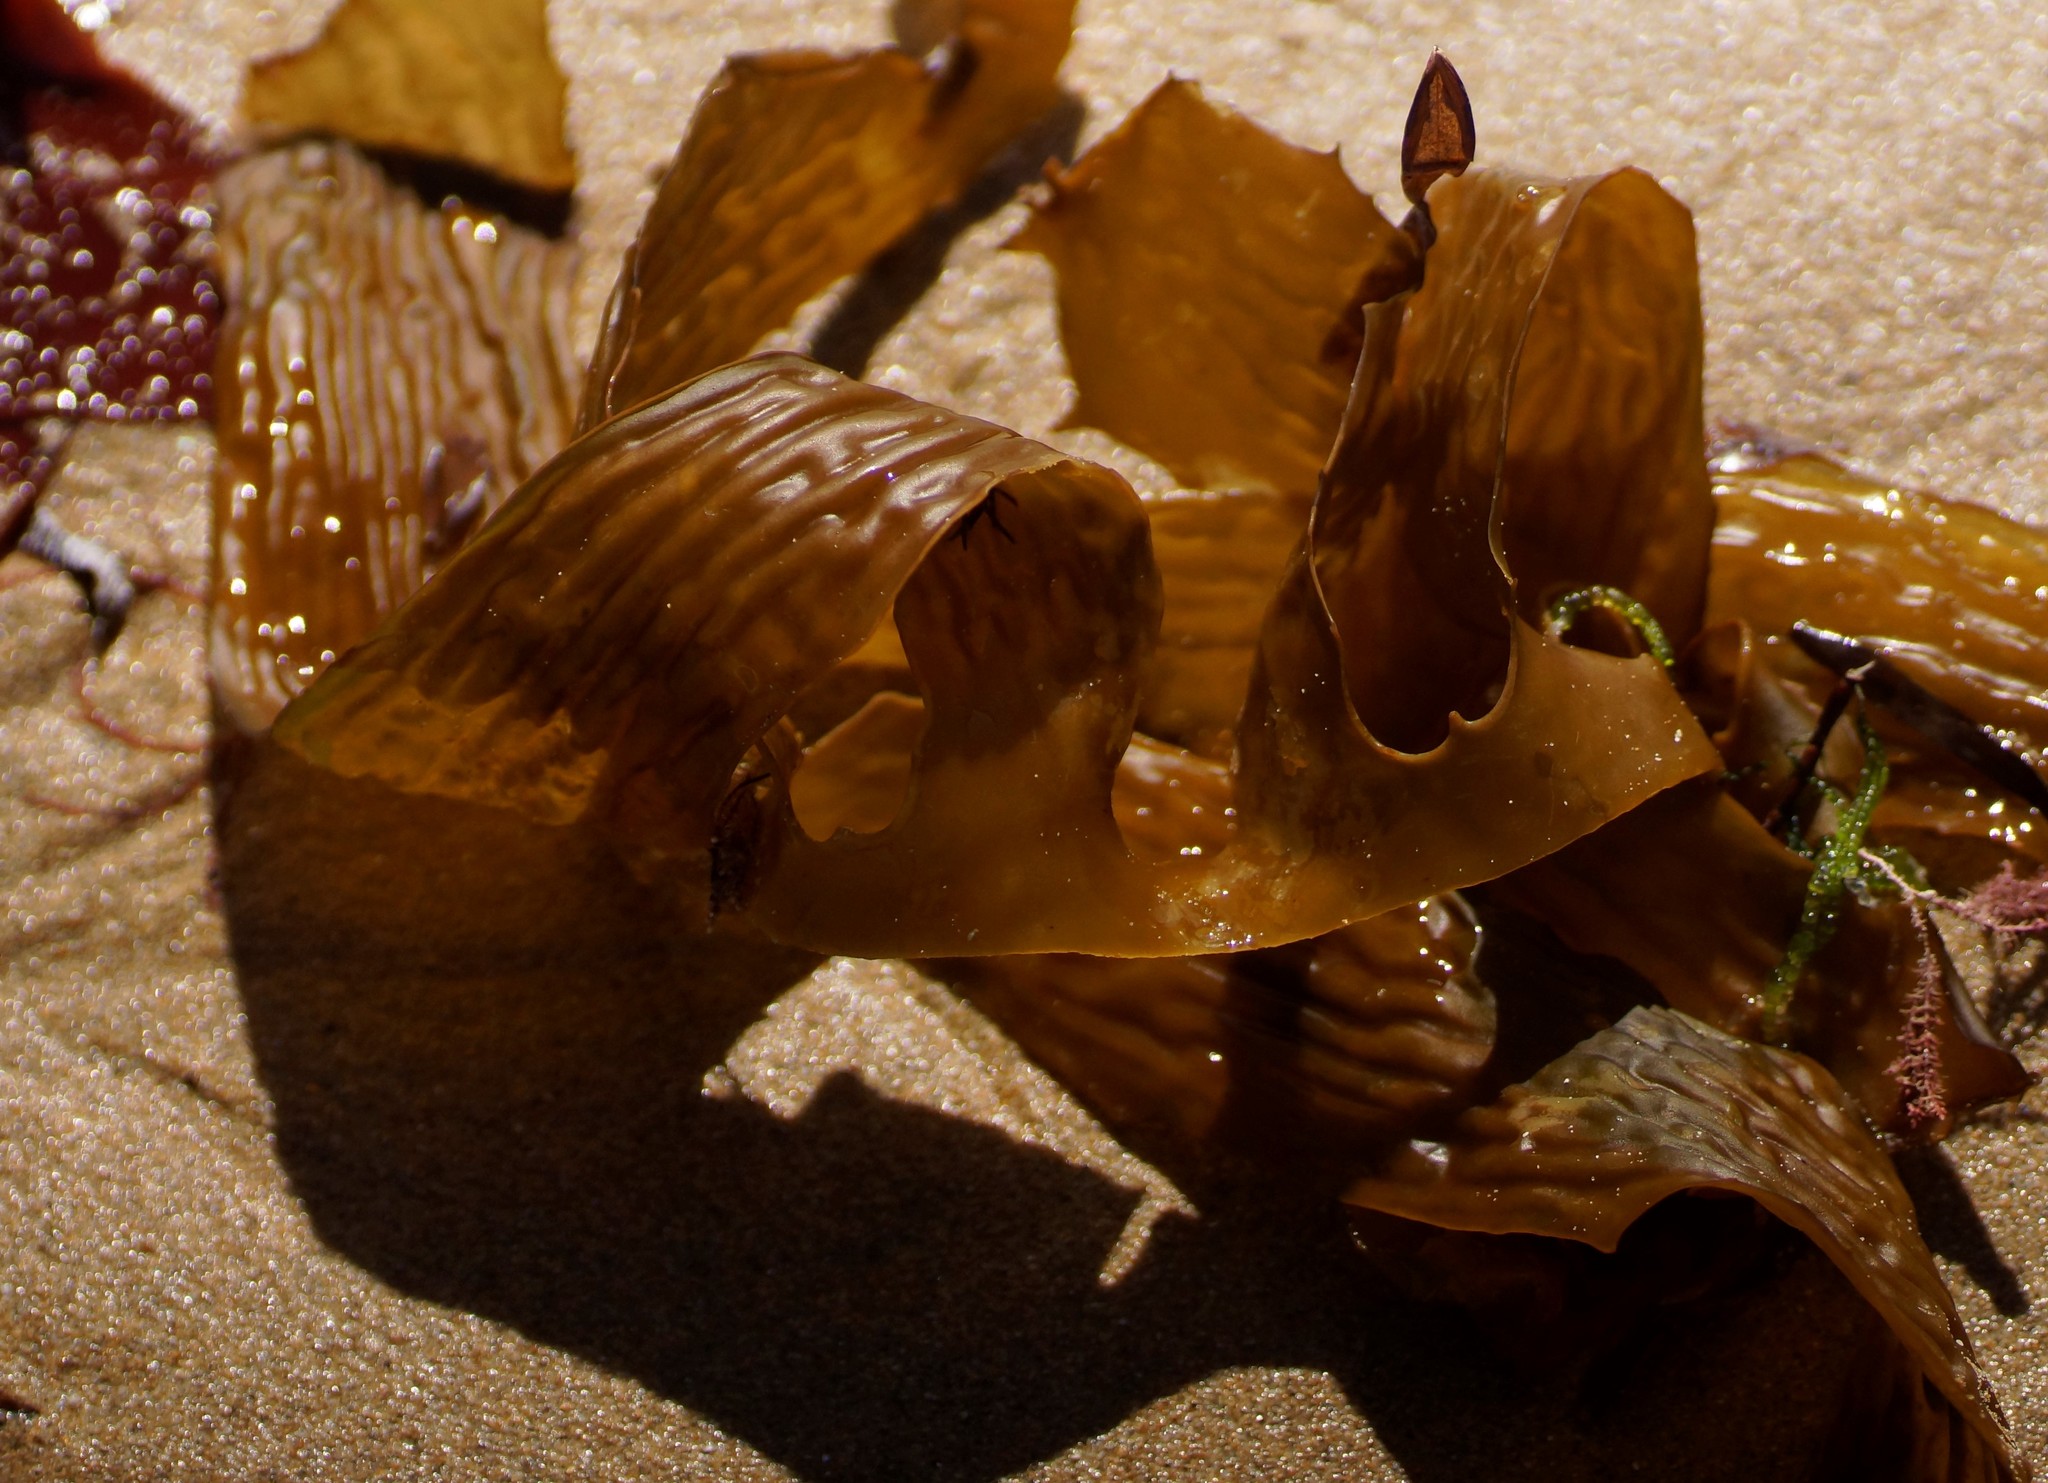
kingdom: Chromista
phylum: Ochrophyta
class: Phaeophyceae
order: Laminariales
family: Lessoniaceae
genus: Ecklonia
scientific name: Ecklonia radiata
